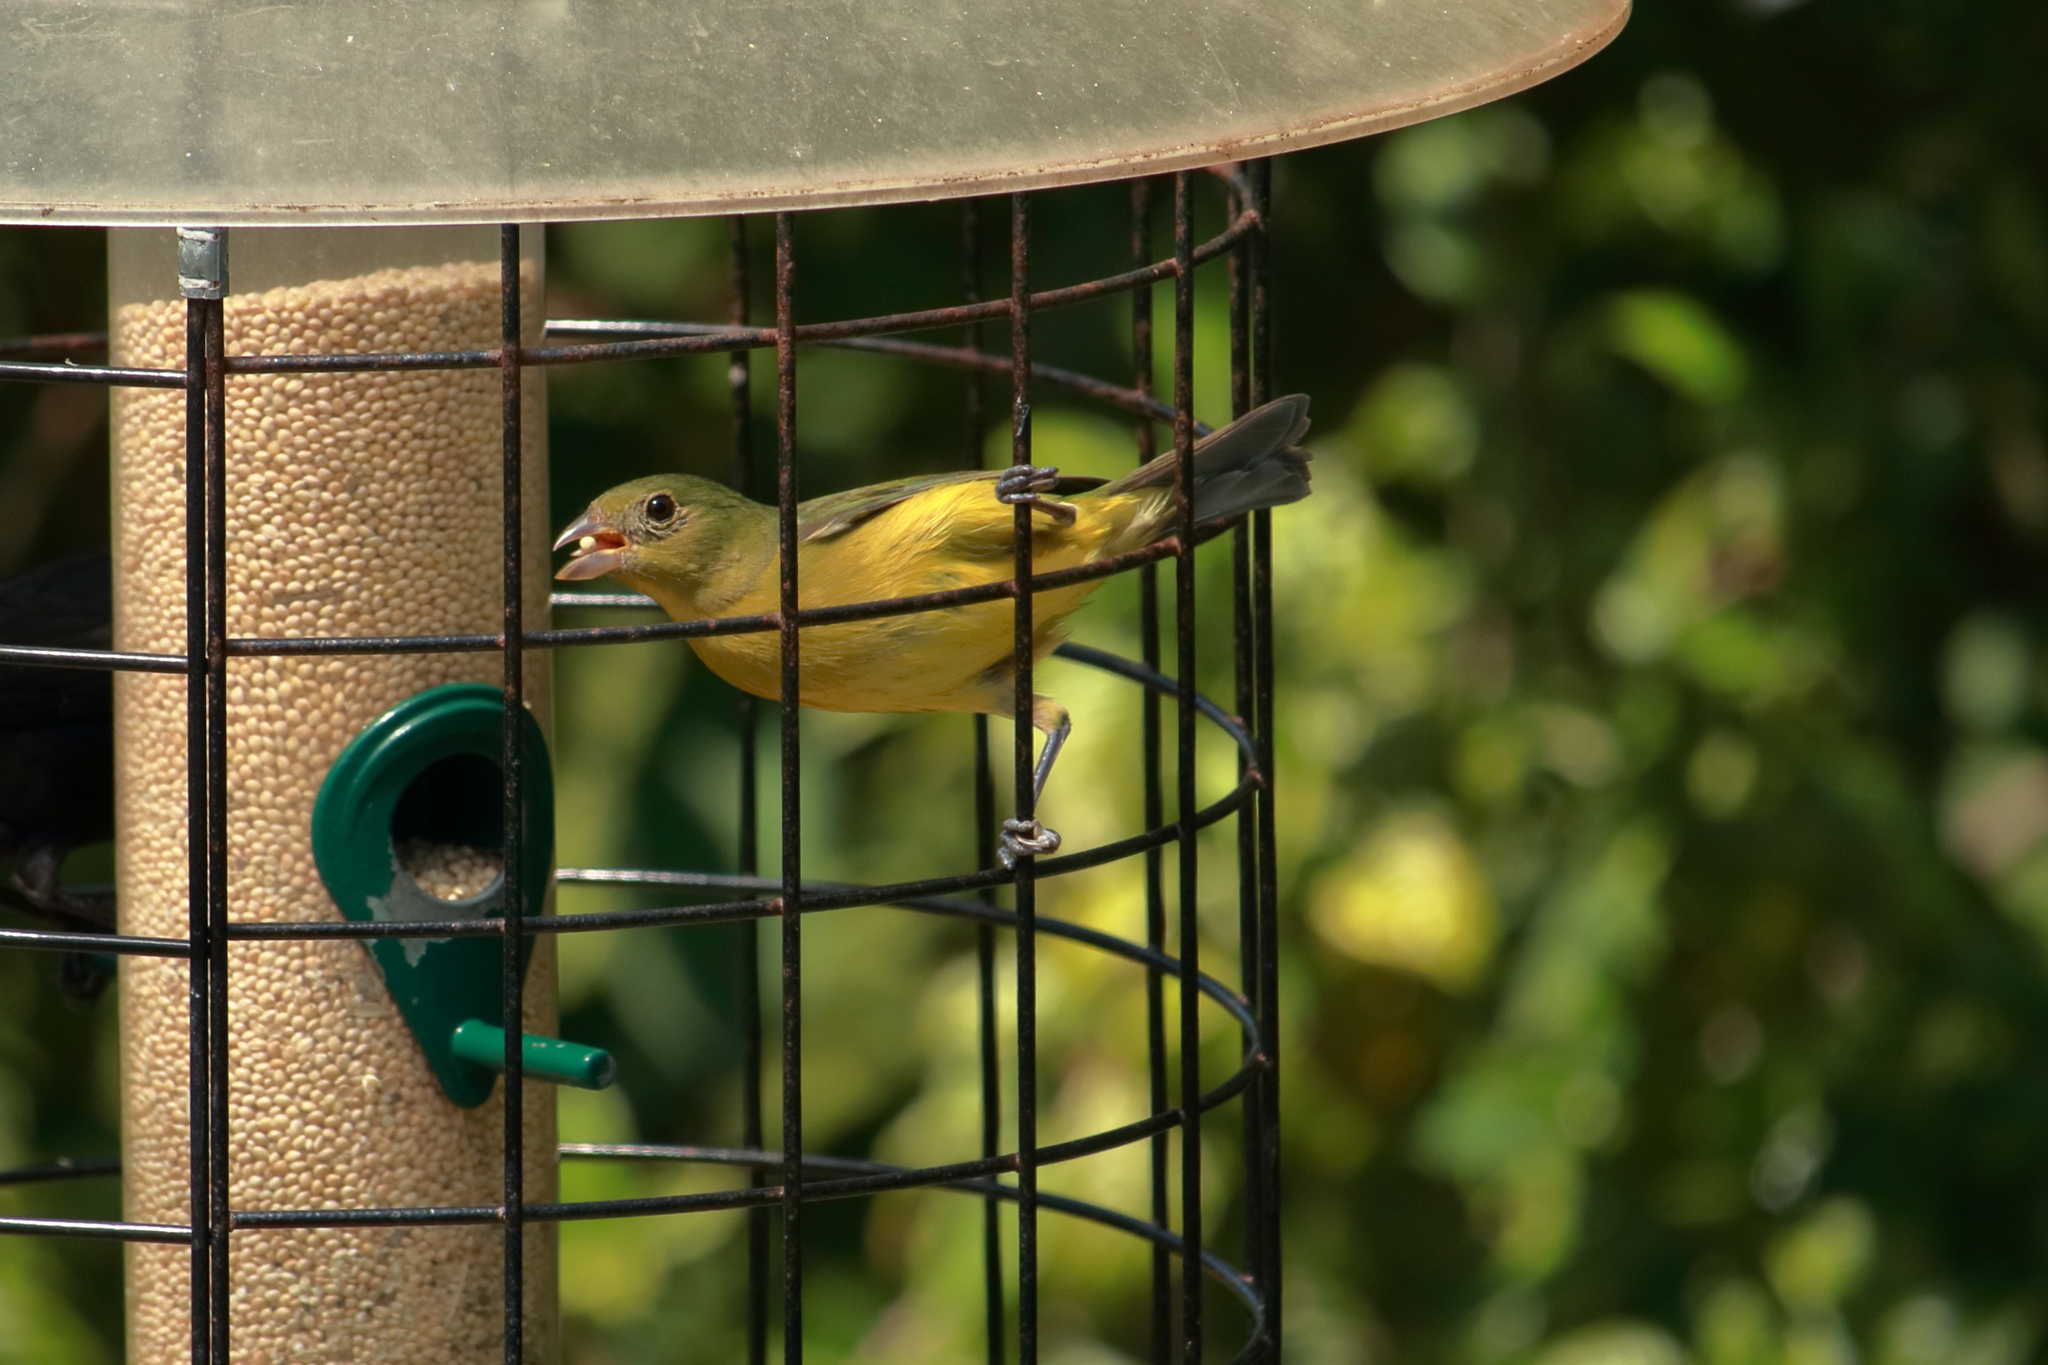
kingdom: Animalia
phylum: Chordata
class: Aves
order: Passeriformes
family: Cardinalidae
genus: Passerina
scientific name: Passerina ciris
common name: Painted bunting
